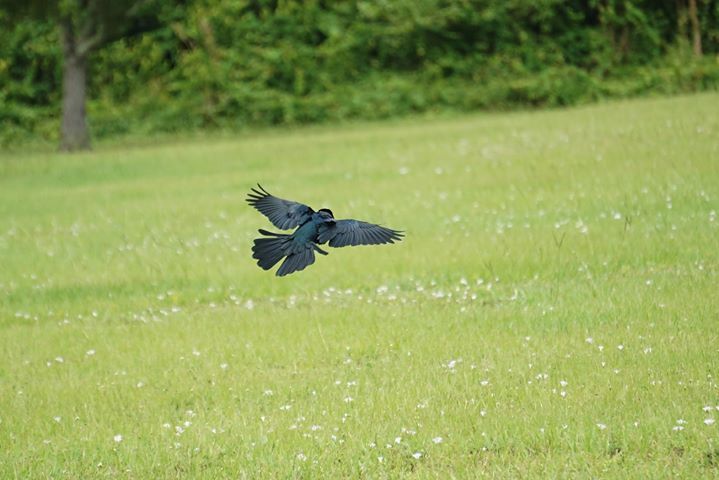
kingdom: Animalia
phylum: Chordata
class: Aves
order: Passeriformes
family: Icteridae
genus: Quiscalus
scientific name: Quiscalus major
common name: Boat-tailed grackle
